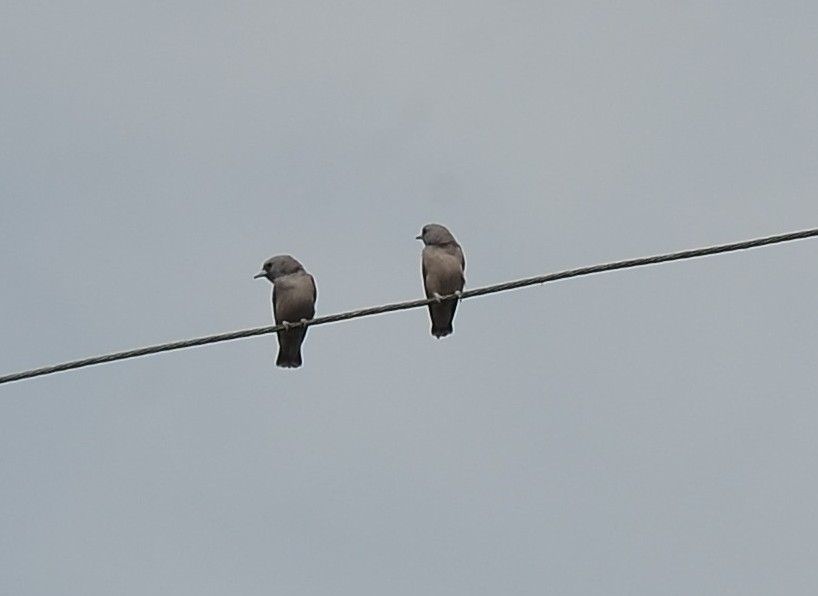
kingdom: Animalia
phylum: Chordata
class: Aves
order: Passeriformes
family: Artamidae
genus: Artamus
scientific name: Artamus fuscus
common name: Ashy woodswallow
